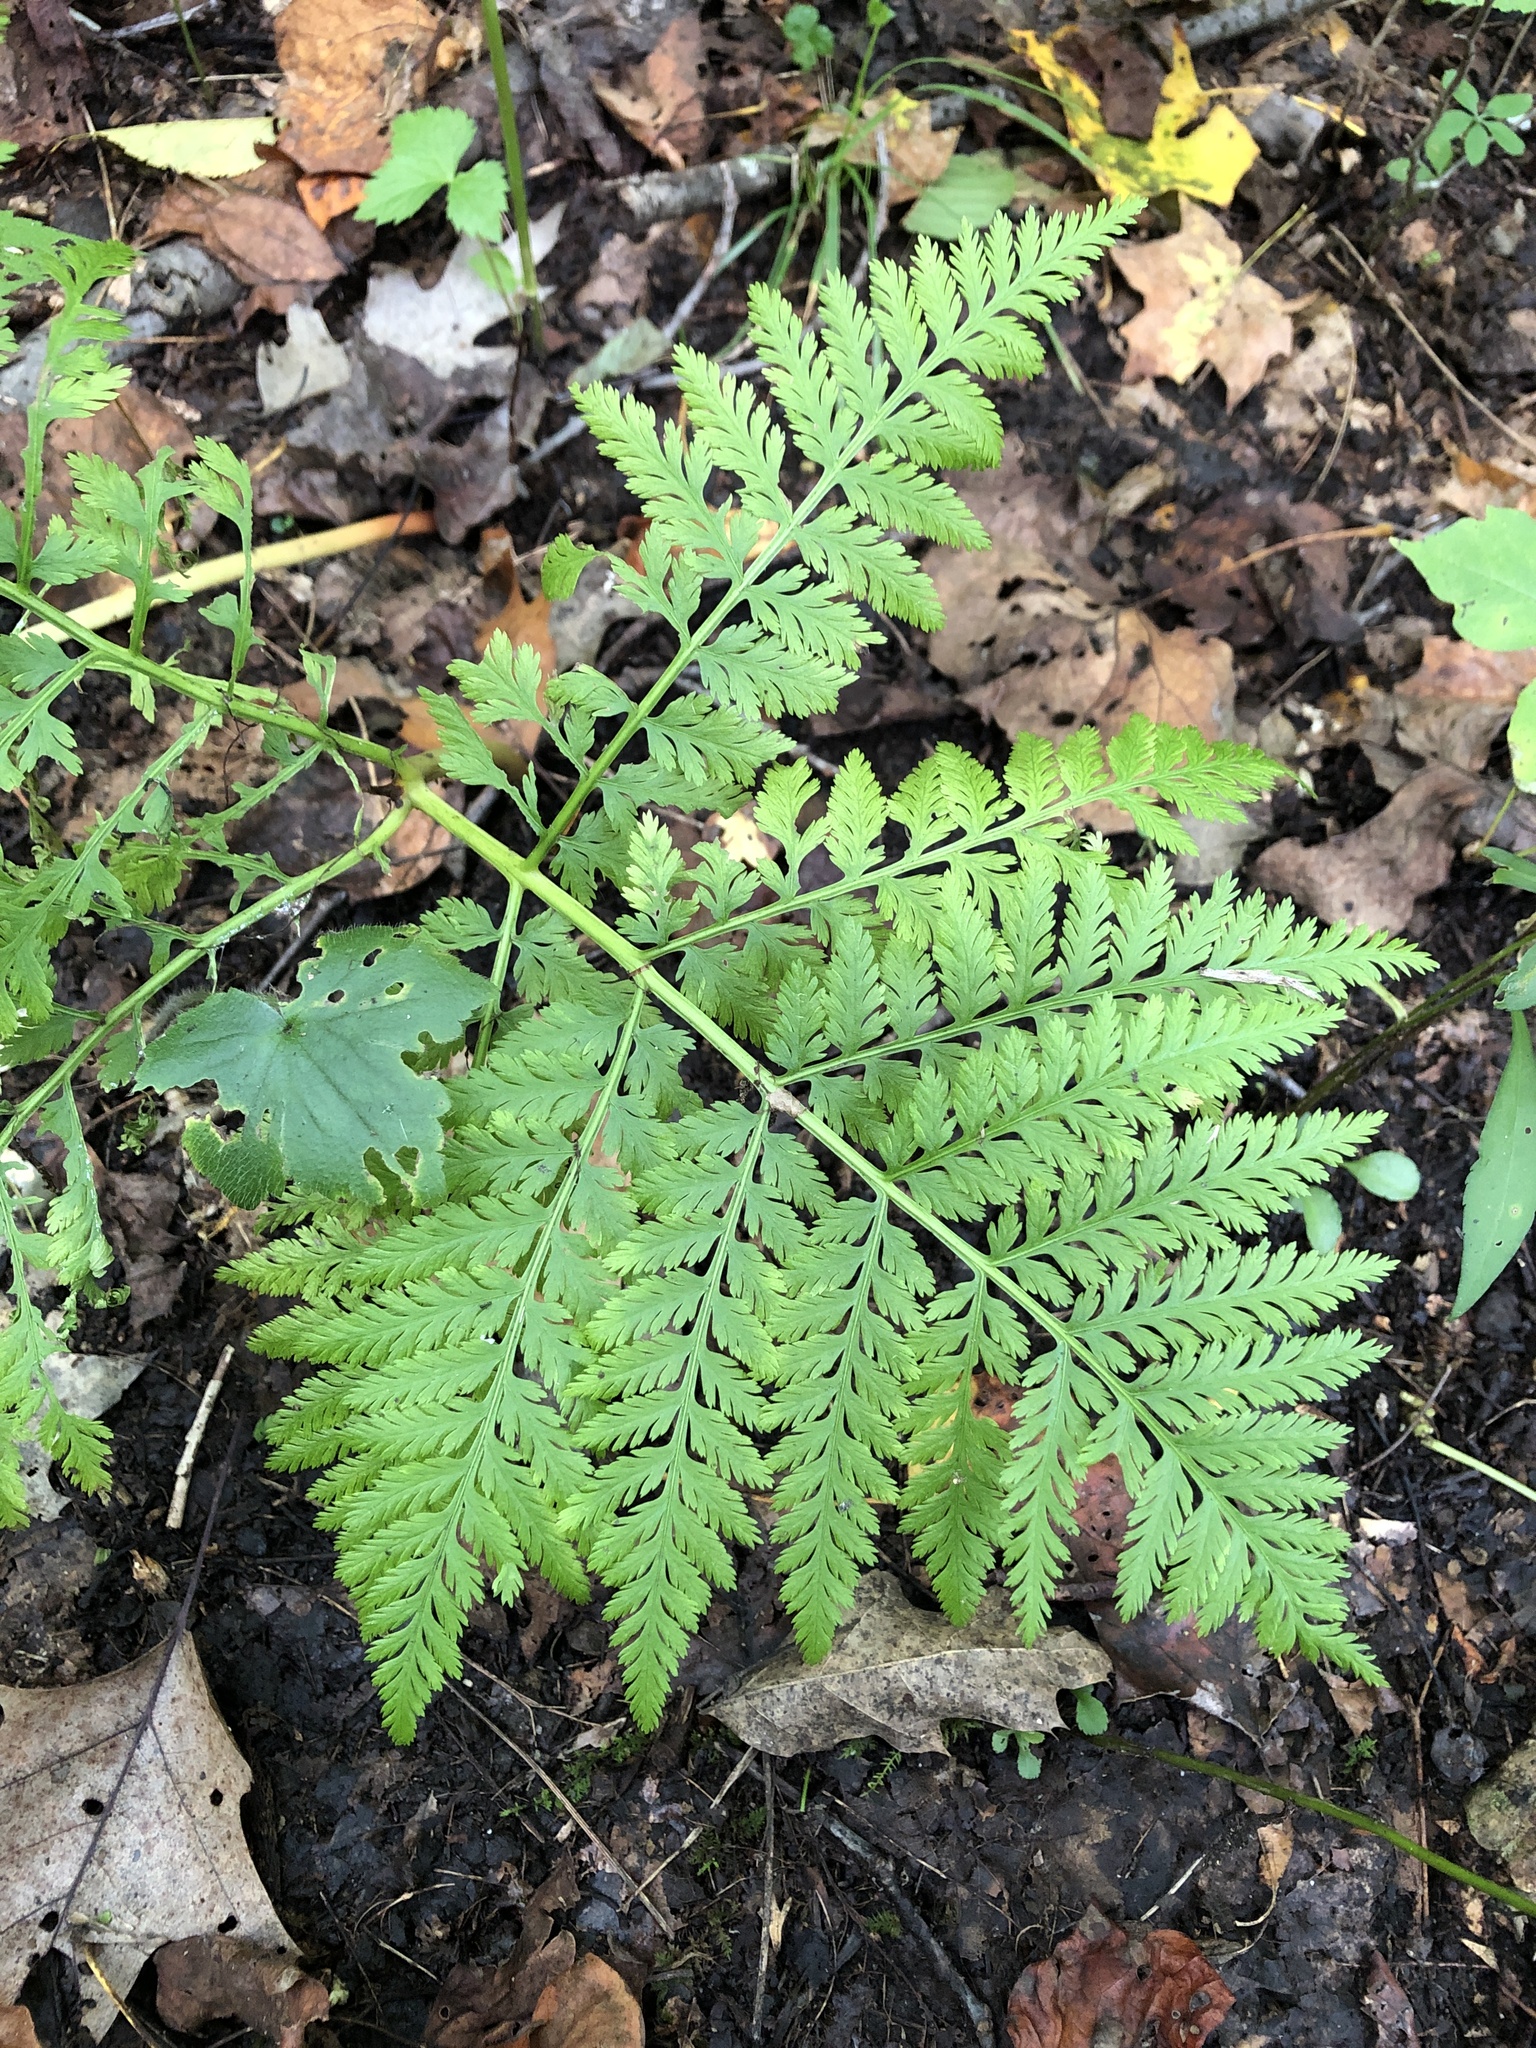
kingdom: Plantae
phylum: Tracheophyta
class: Polypodiopsida
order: Ophioglossales
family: Ophioglossaceae
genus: Botrypus
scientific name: Botrypus virginianus
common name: Common grapefern
